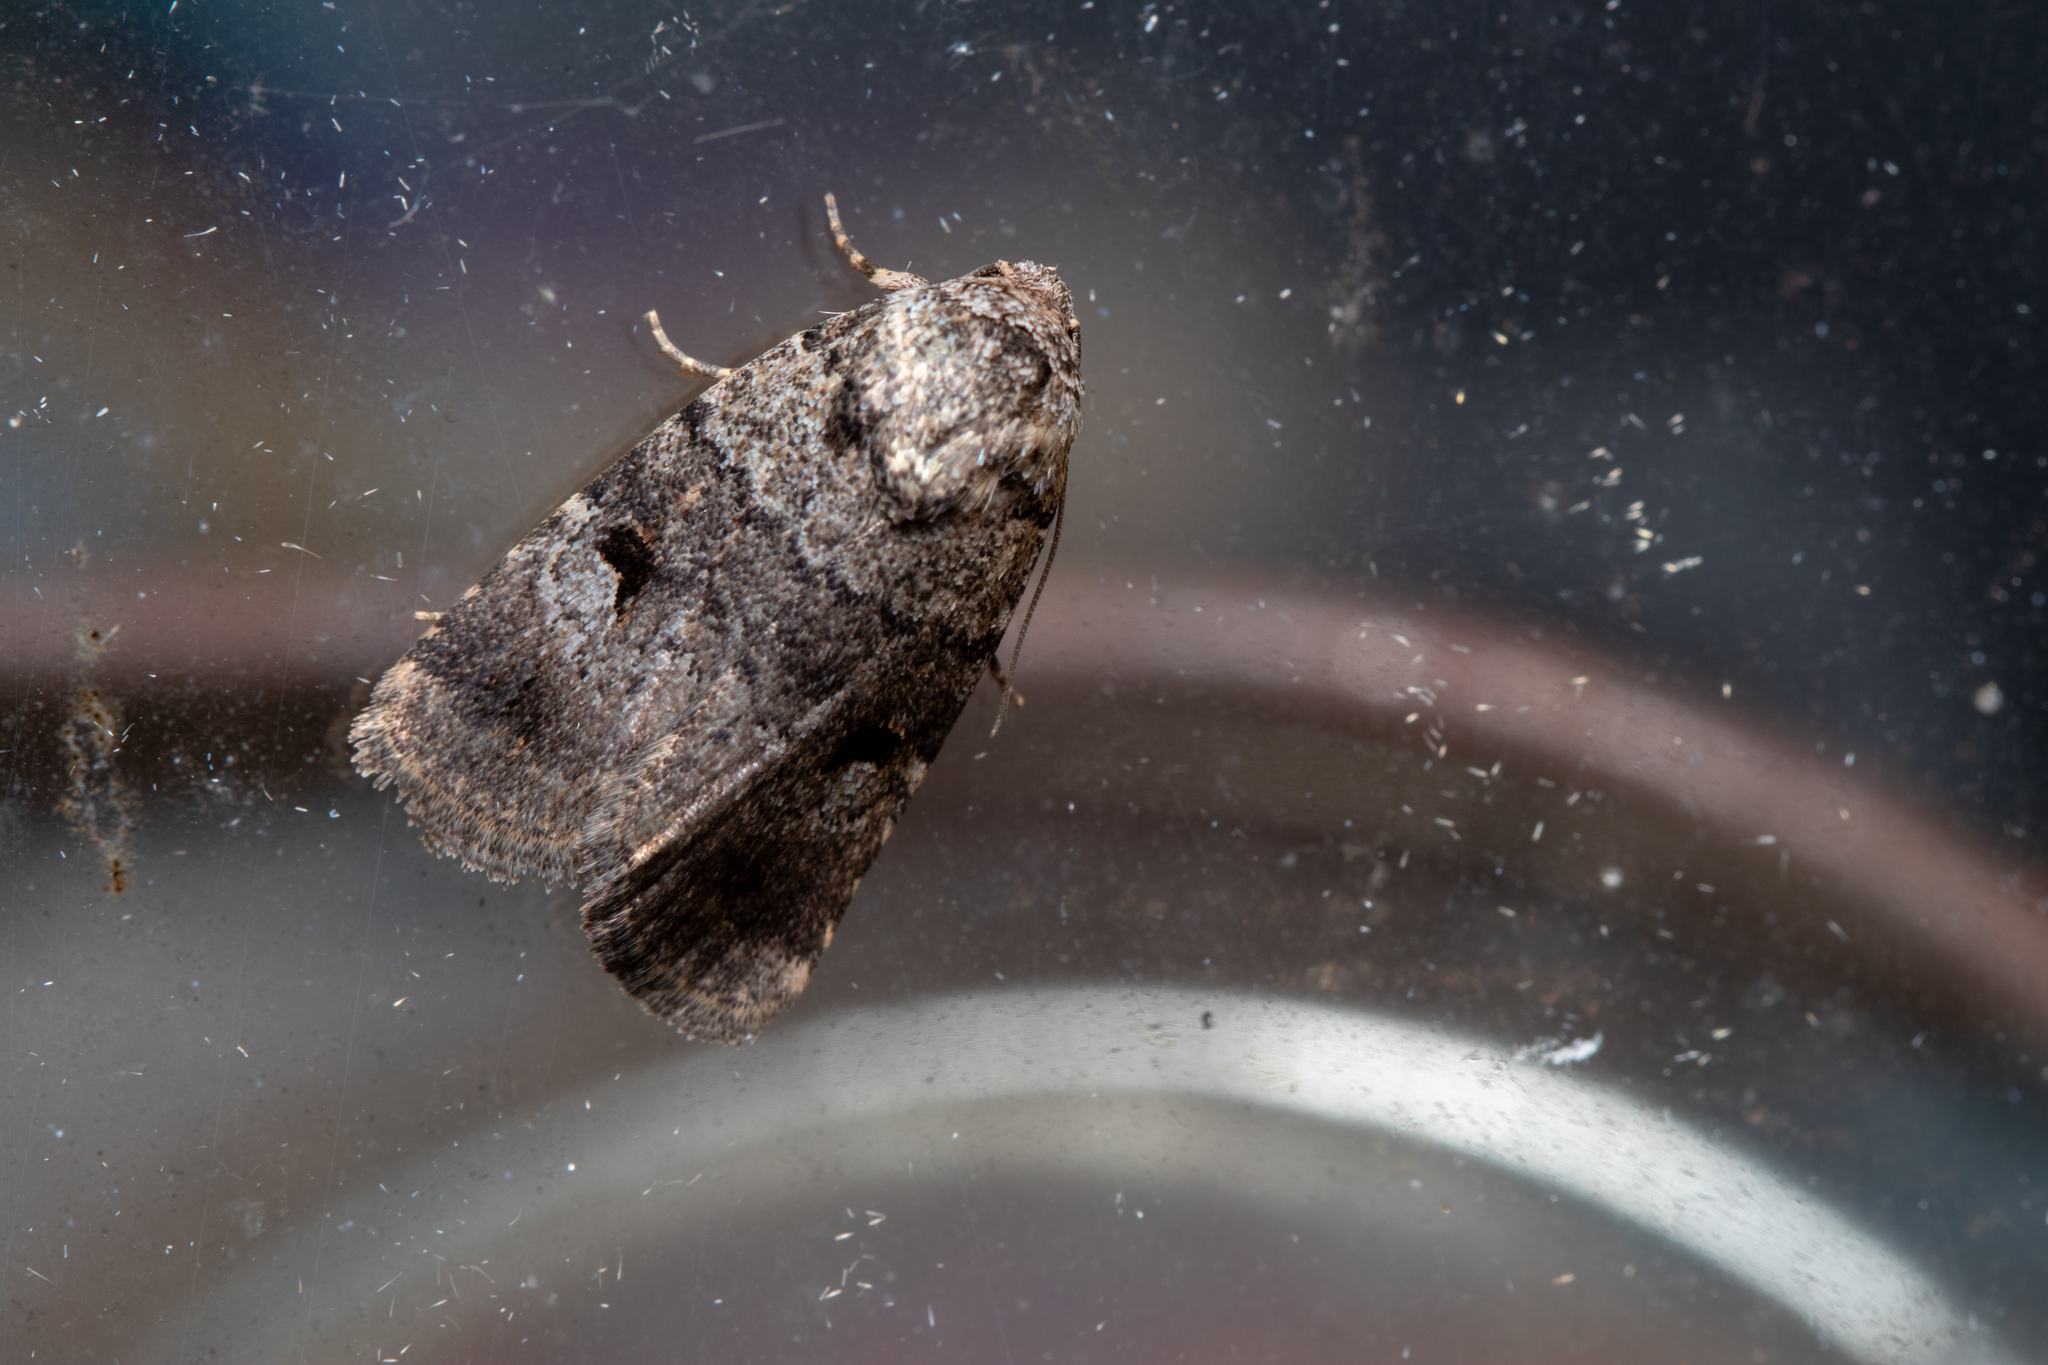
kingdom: Animalia
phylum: Arthropoda
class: Insecta
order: Lepidoptera
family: Noctuidae
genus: Thoracolopha
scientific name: Thoracolopha flexirena
